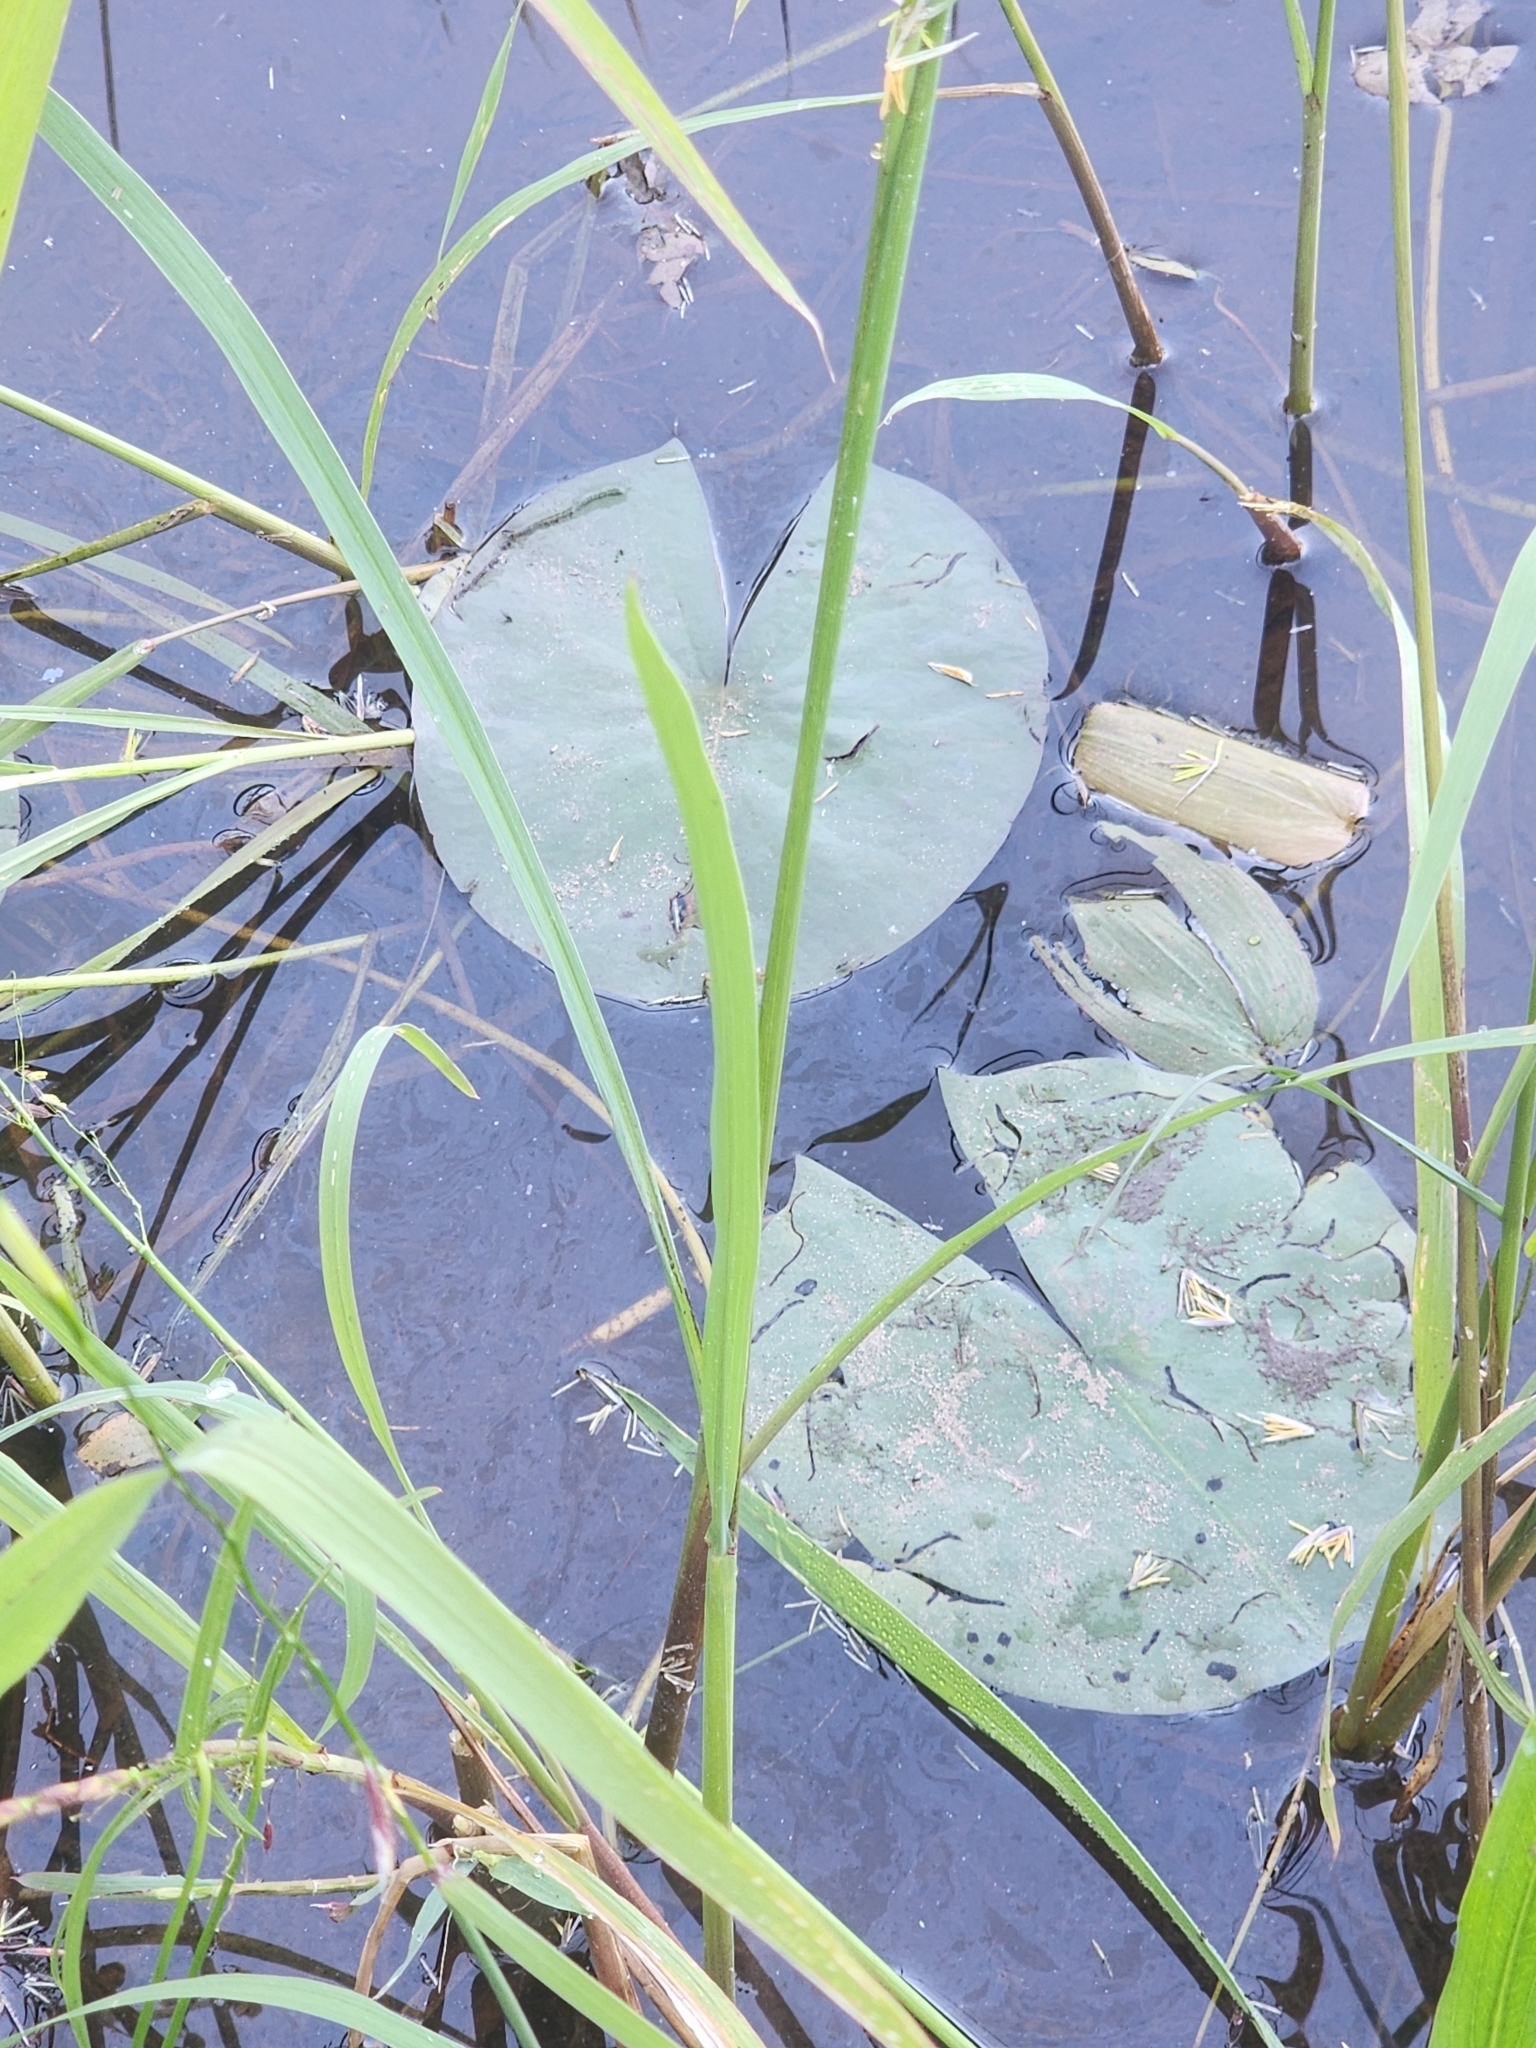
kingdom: Plantae
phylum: Tracheophyta
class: Magnoliopsida
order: Nymphaeales
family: Nymphaeaceae
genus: Nymphaea
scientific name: Nymphaea odorata
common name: Fragrant water-lily
